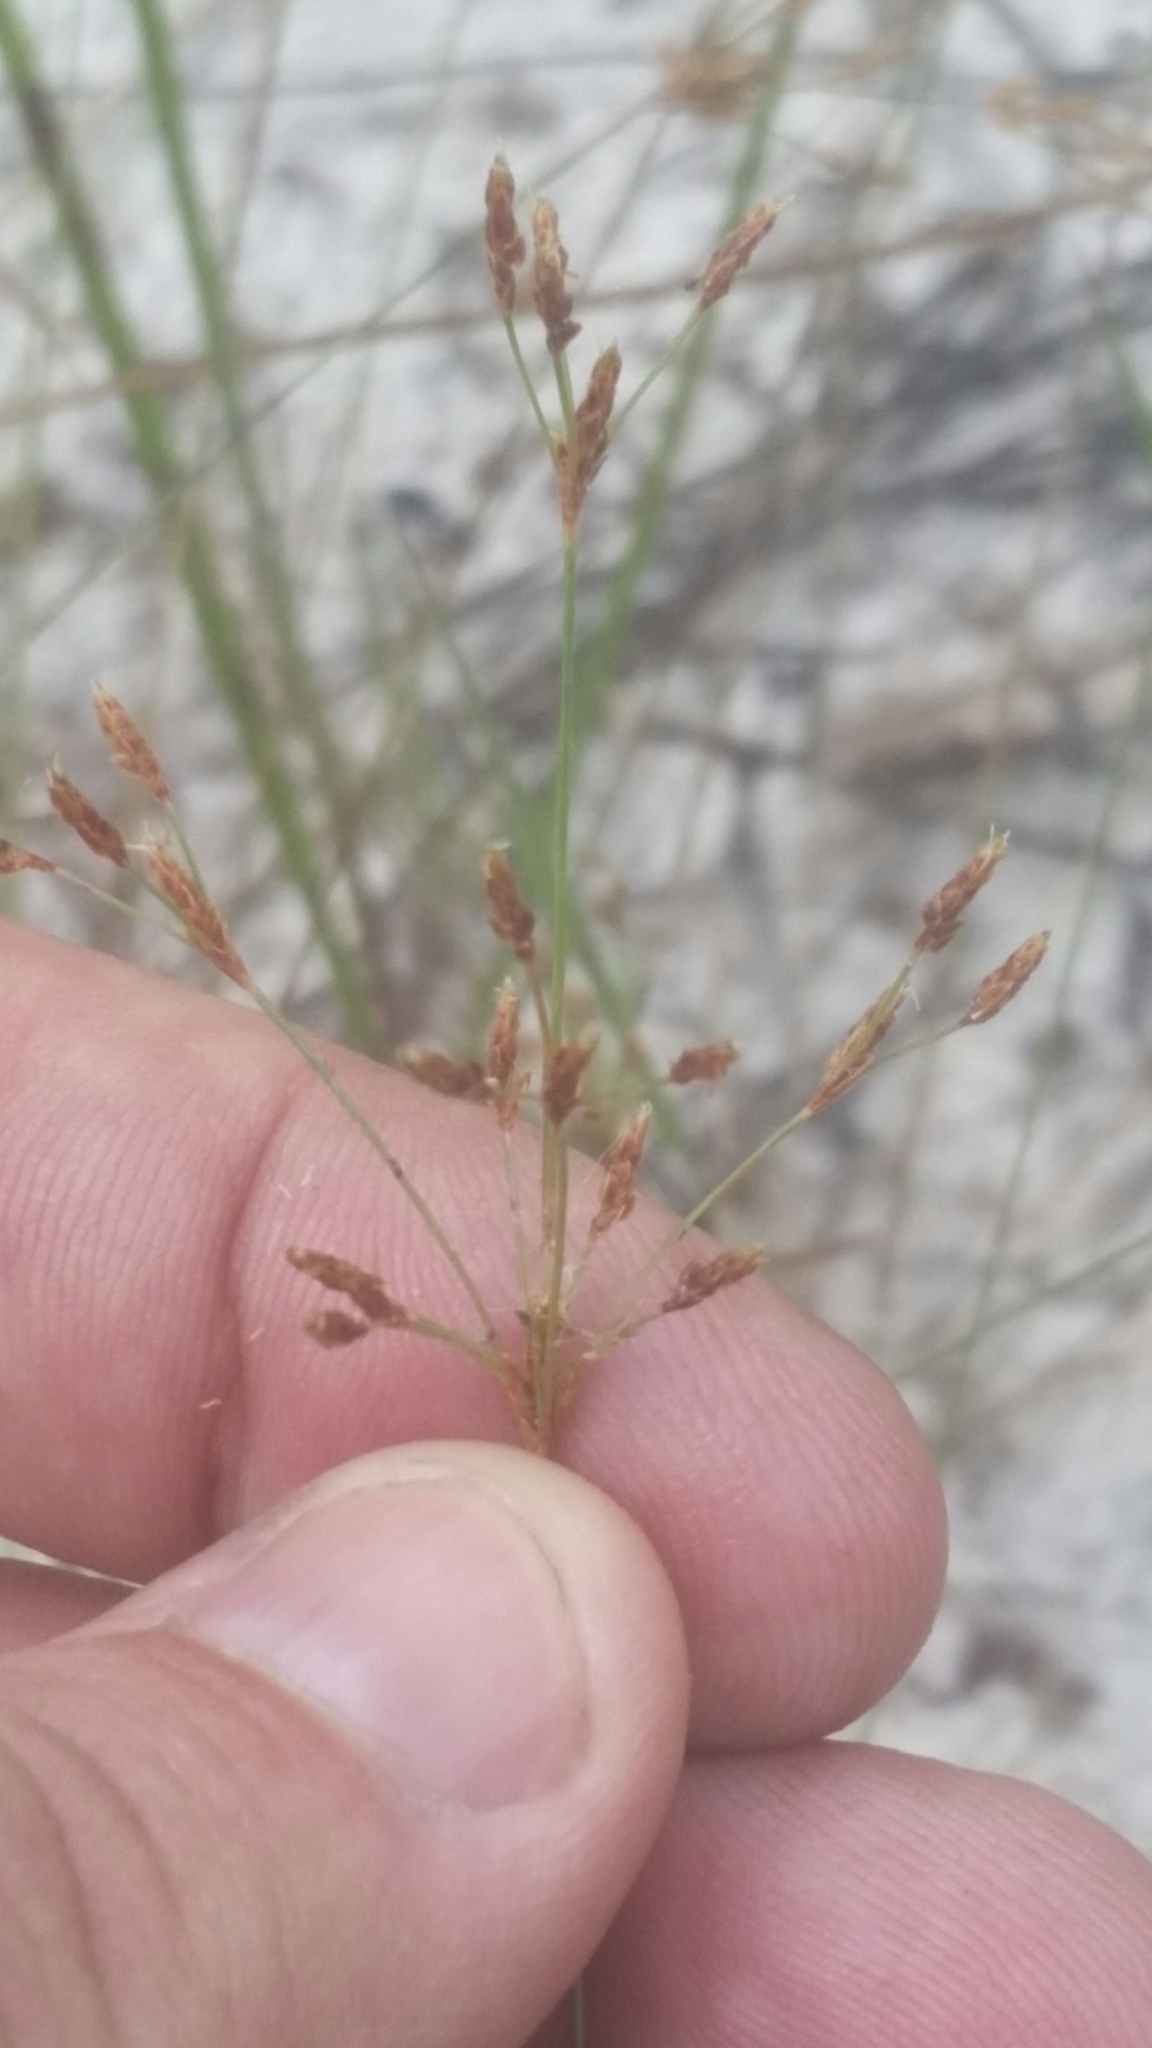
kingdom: Plantae
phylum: Tracheophyta
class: Liliopsida
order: Poales
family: Cyperaceae
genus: Bulbostylis
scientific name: Bulbostylis ciliatifolia
